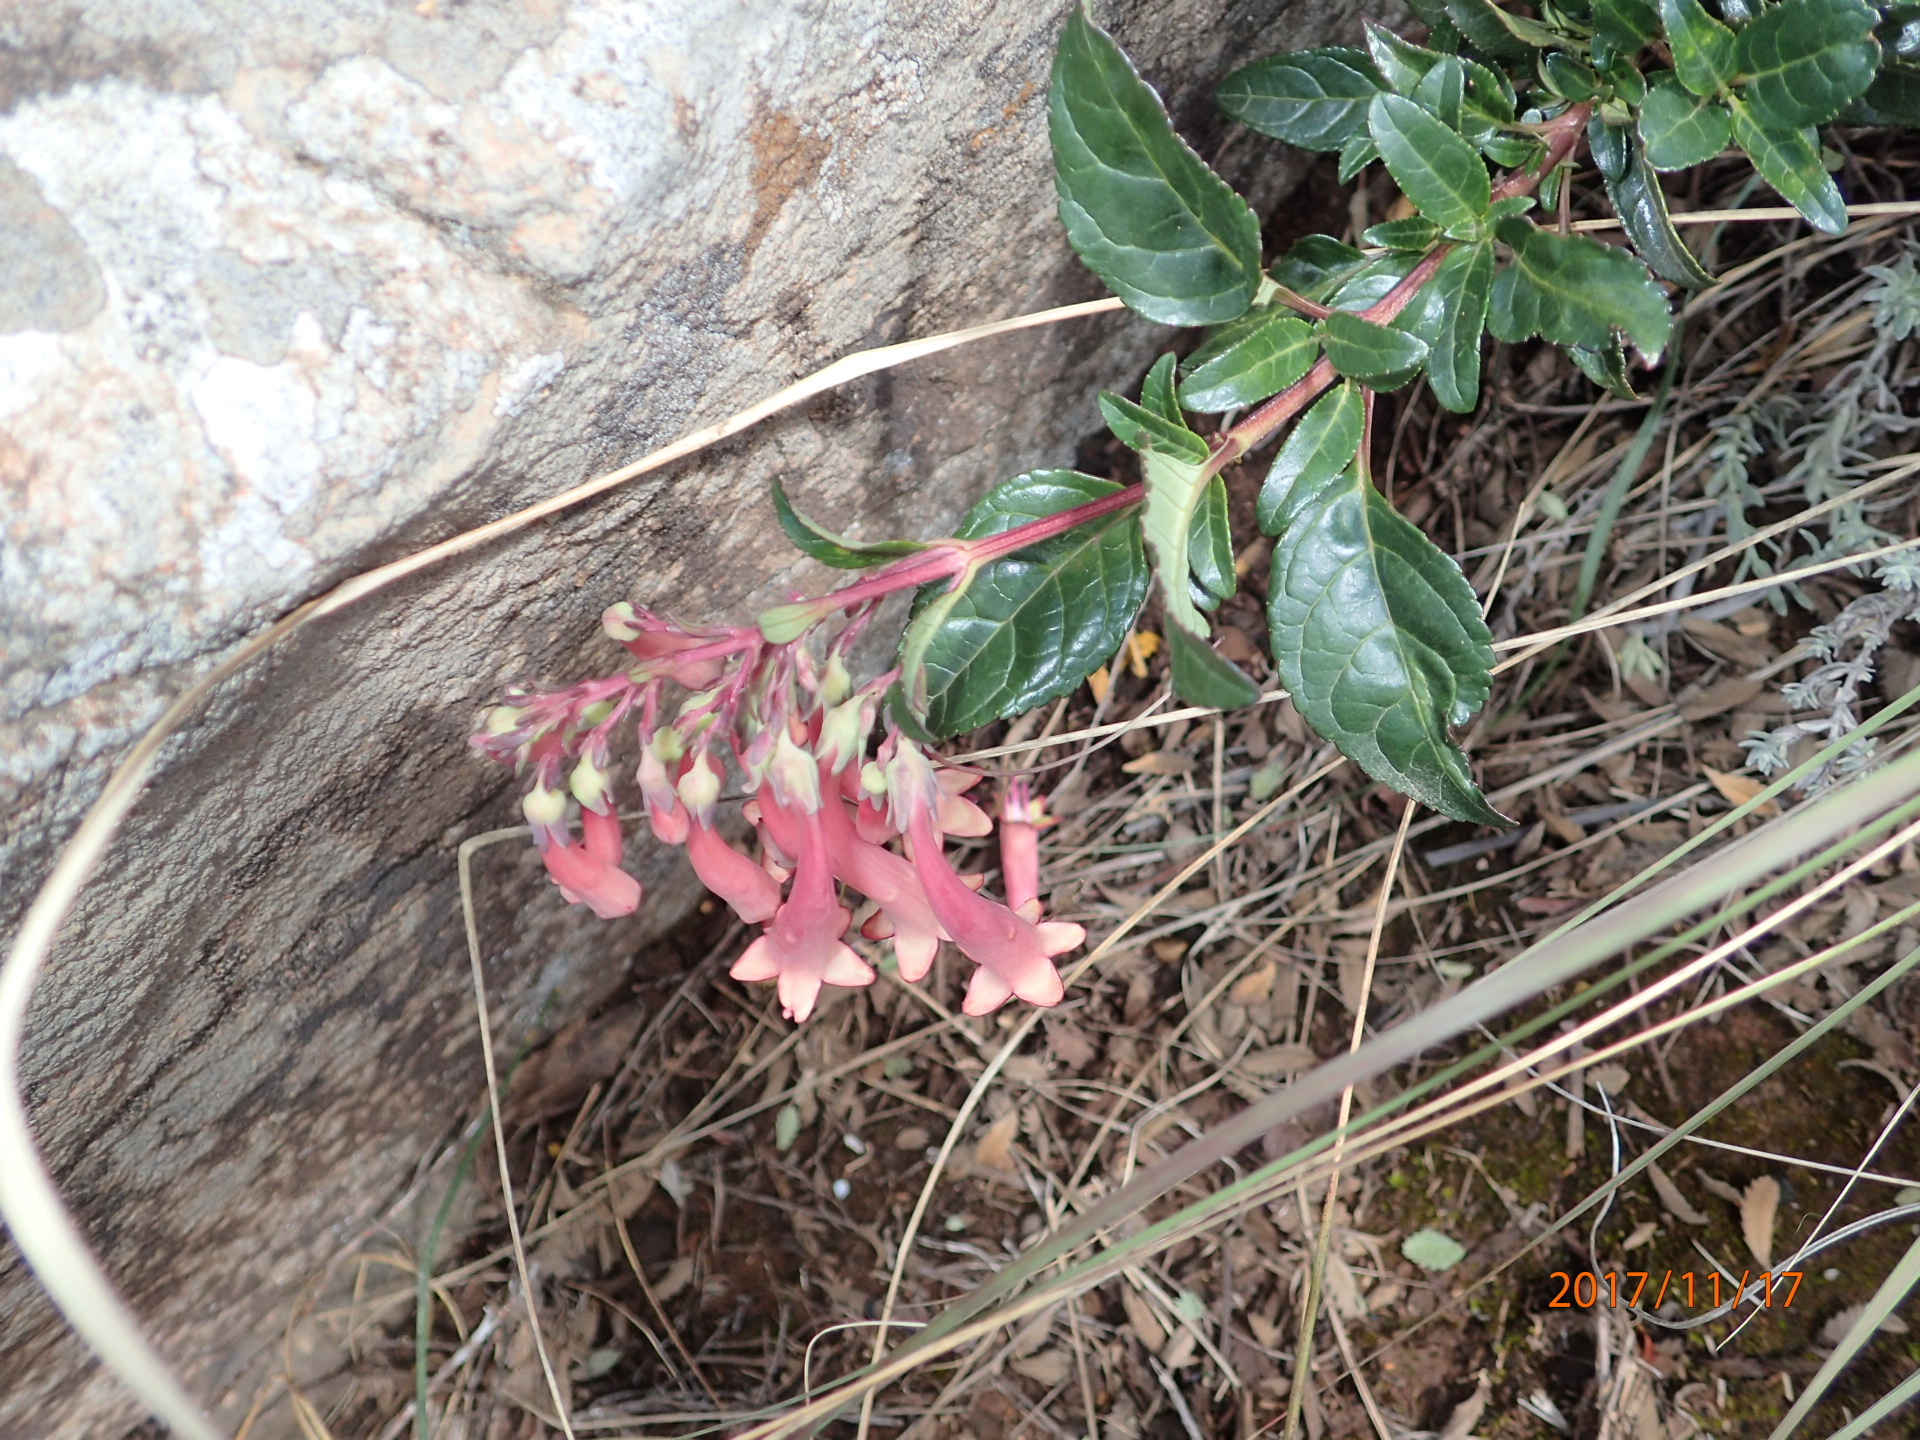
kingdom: Plantae
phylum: Tracheophyta
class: Magnoliopsida
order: Lamiales
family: Scrophulariaceae
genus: Phygelius
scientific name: Phygelius aequalis
